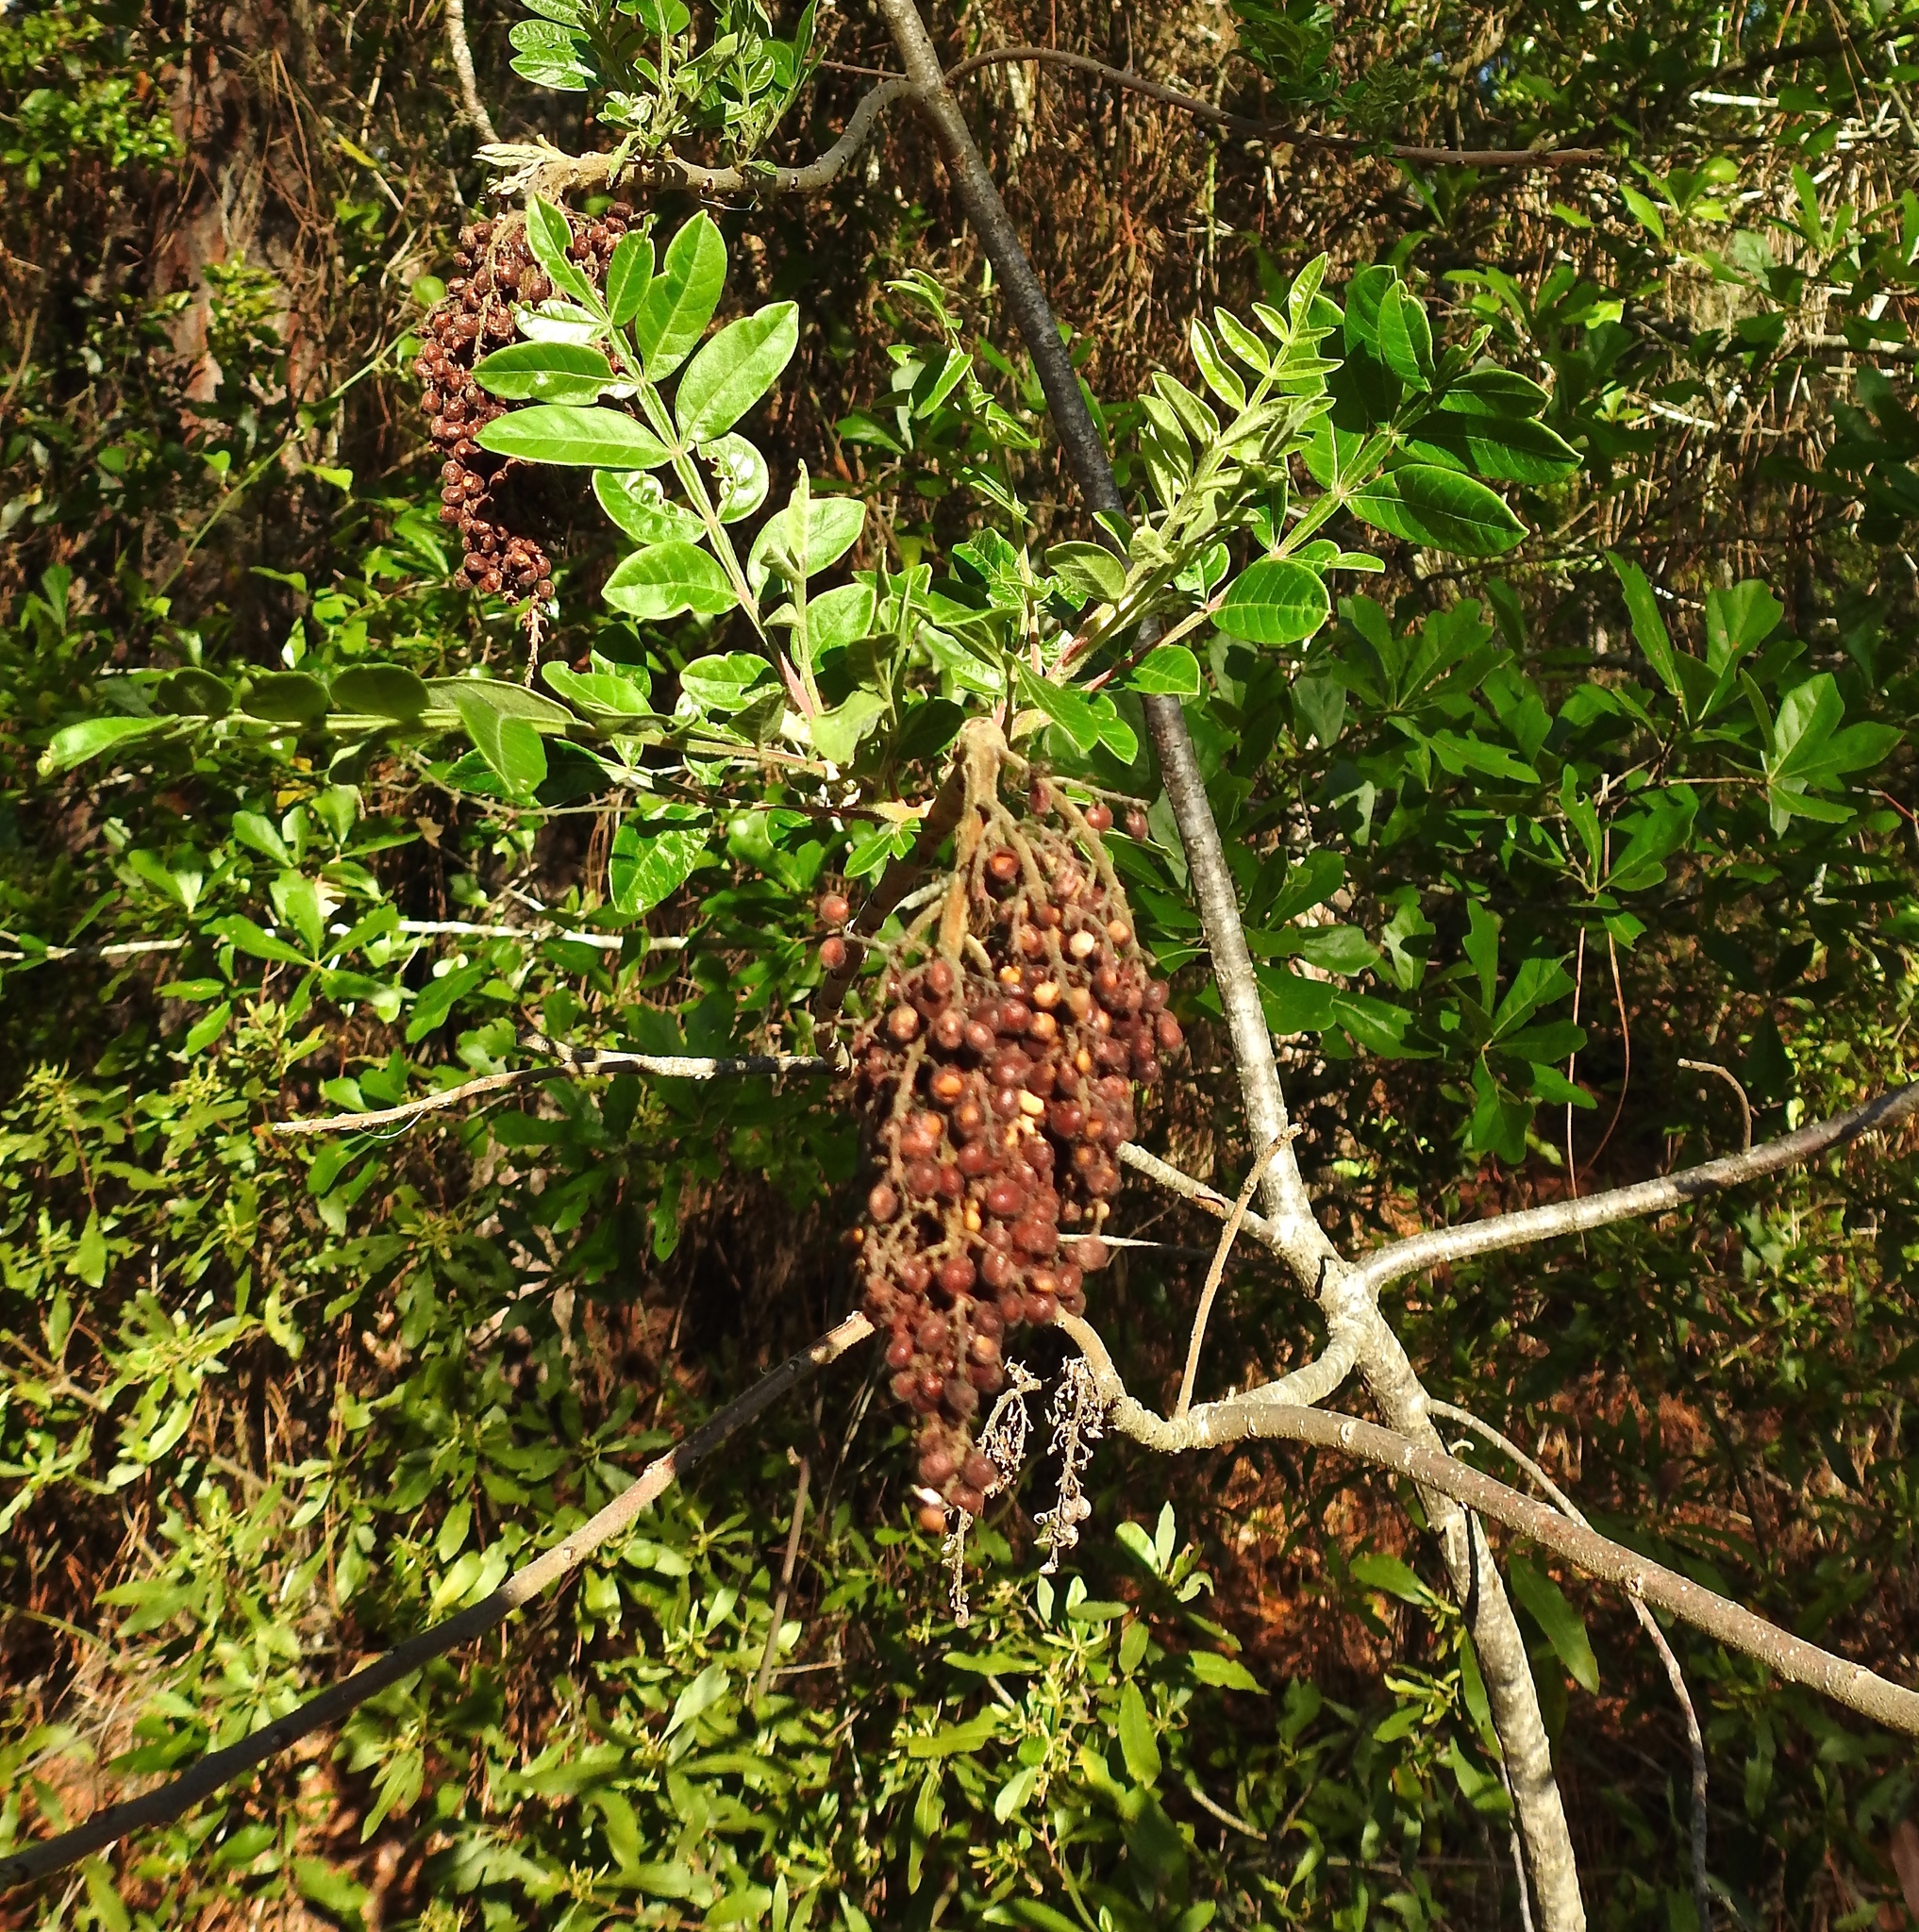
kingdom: Plantae
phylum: Tracheophyta
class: Magnoliopsida
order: Sapindales
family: Anacardiaceae
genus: Rhus
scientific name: Rhus copallina
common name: Shining sumac
